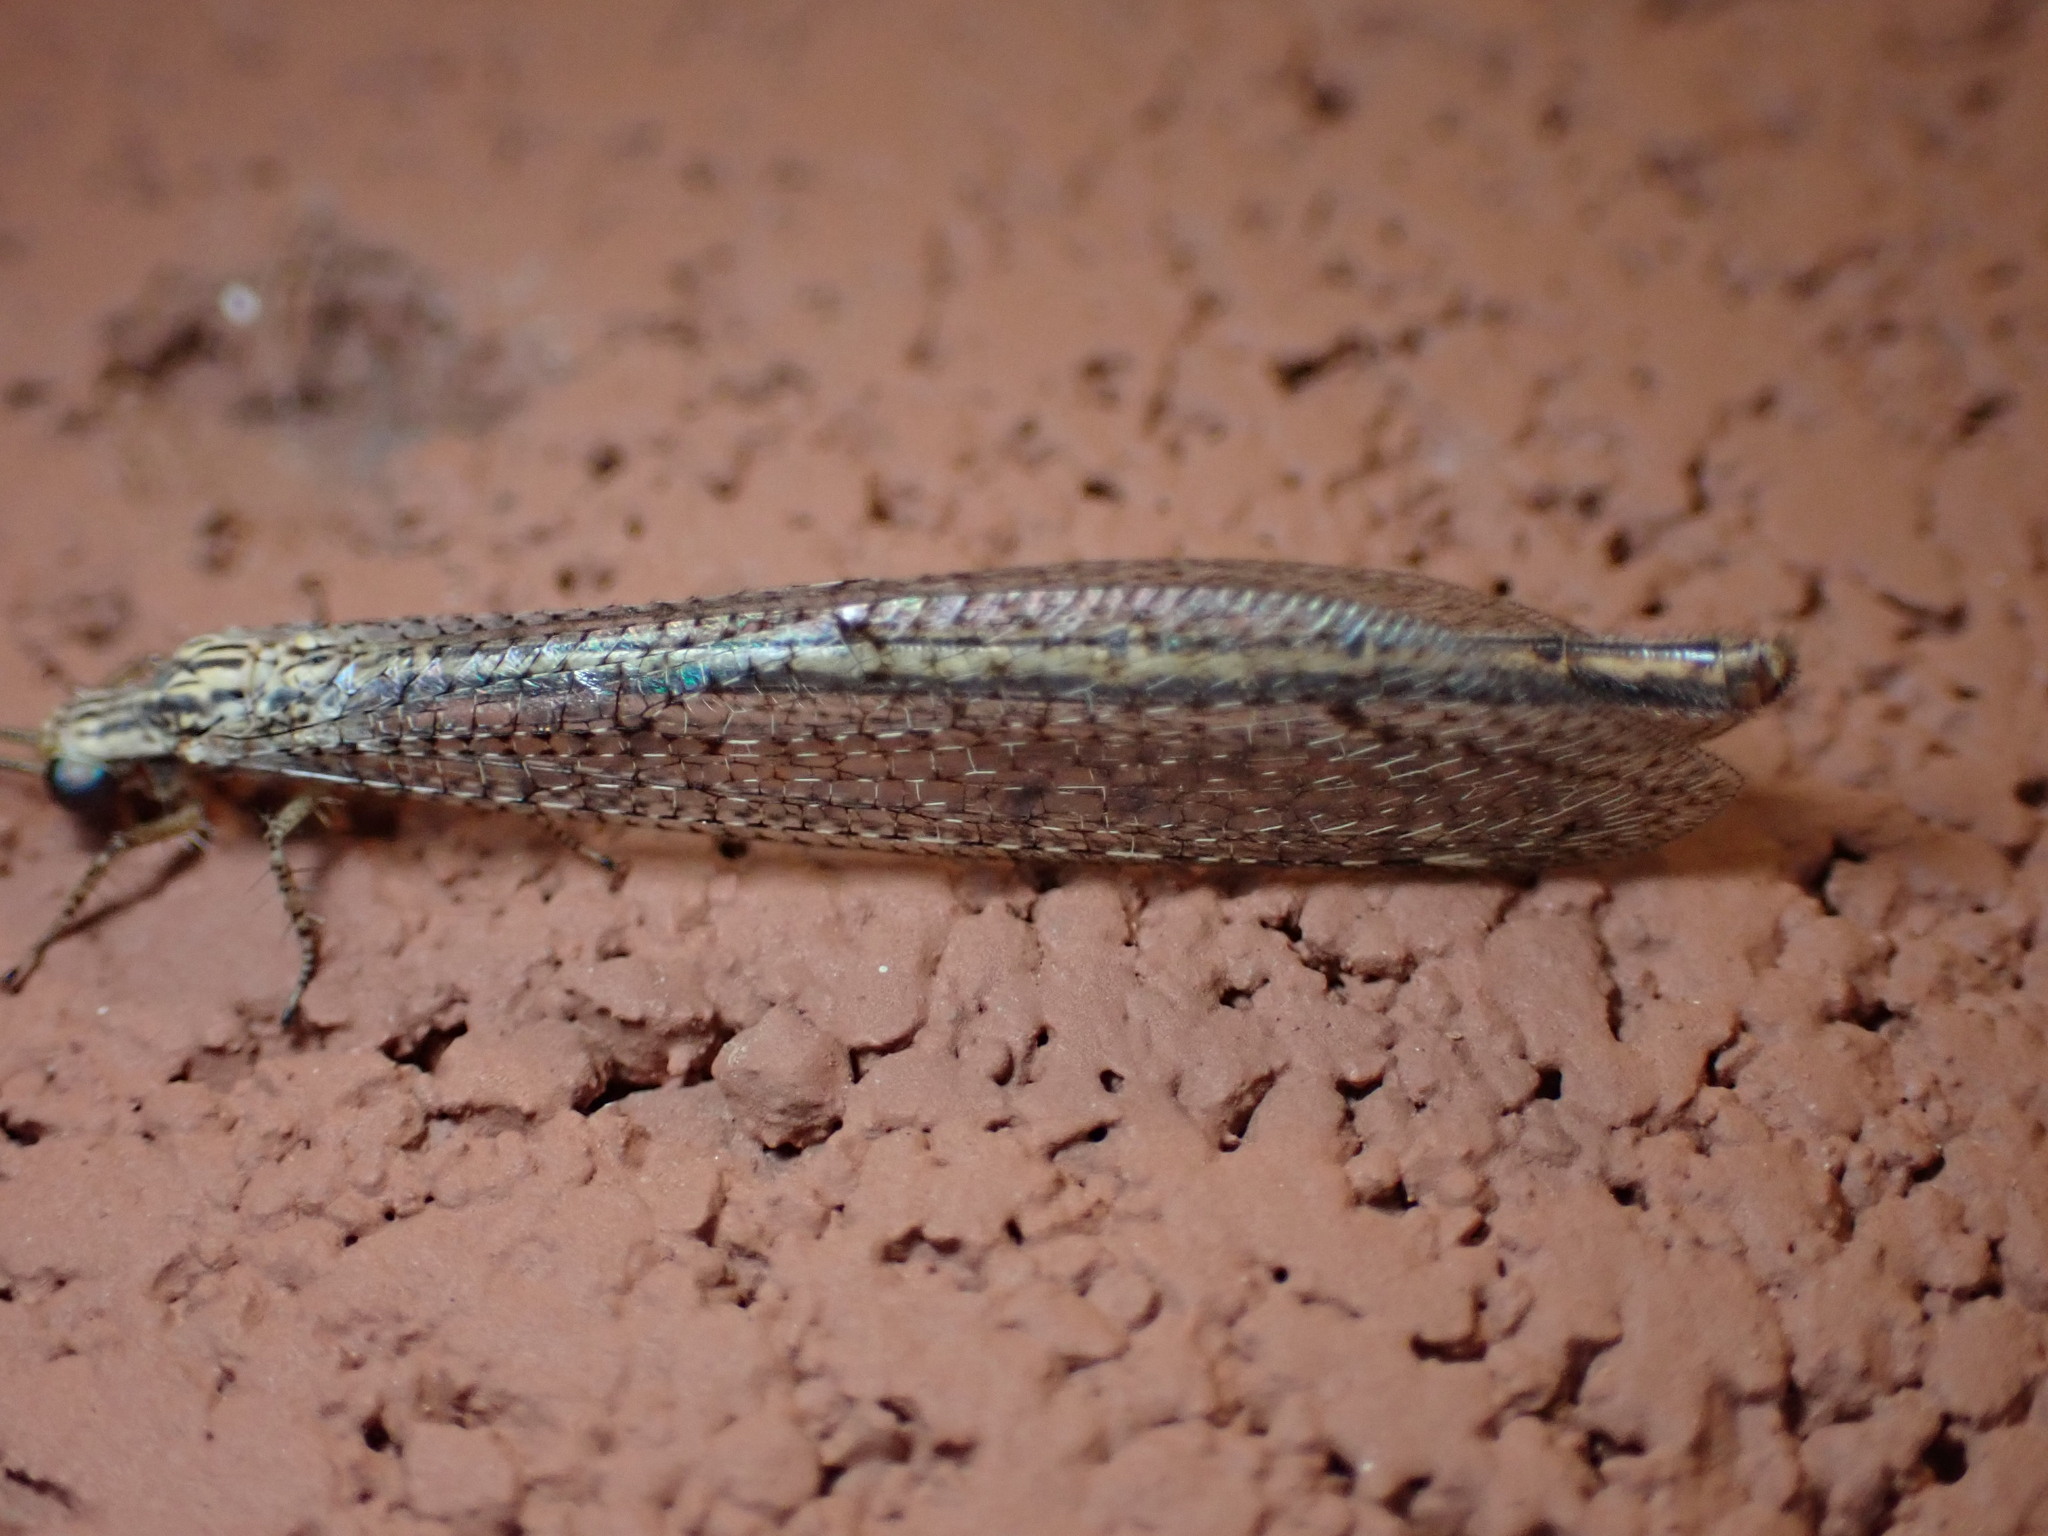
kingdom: Animalia
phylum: Arthropoda
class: Insecta
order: Neuroptera
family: Myrmeleontidae
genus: Brachynemurus
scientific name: Brachynemurus hubbardii
